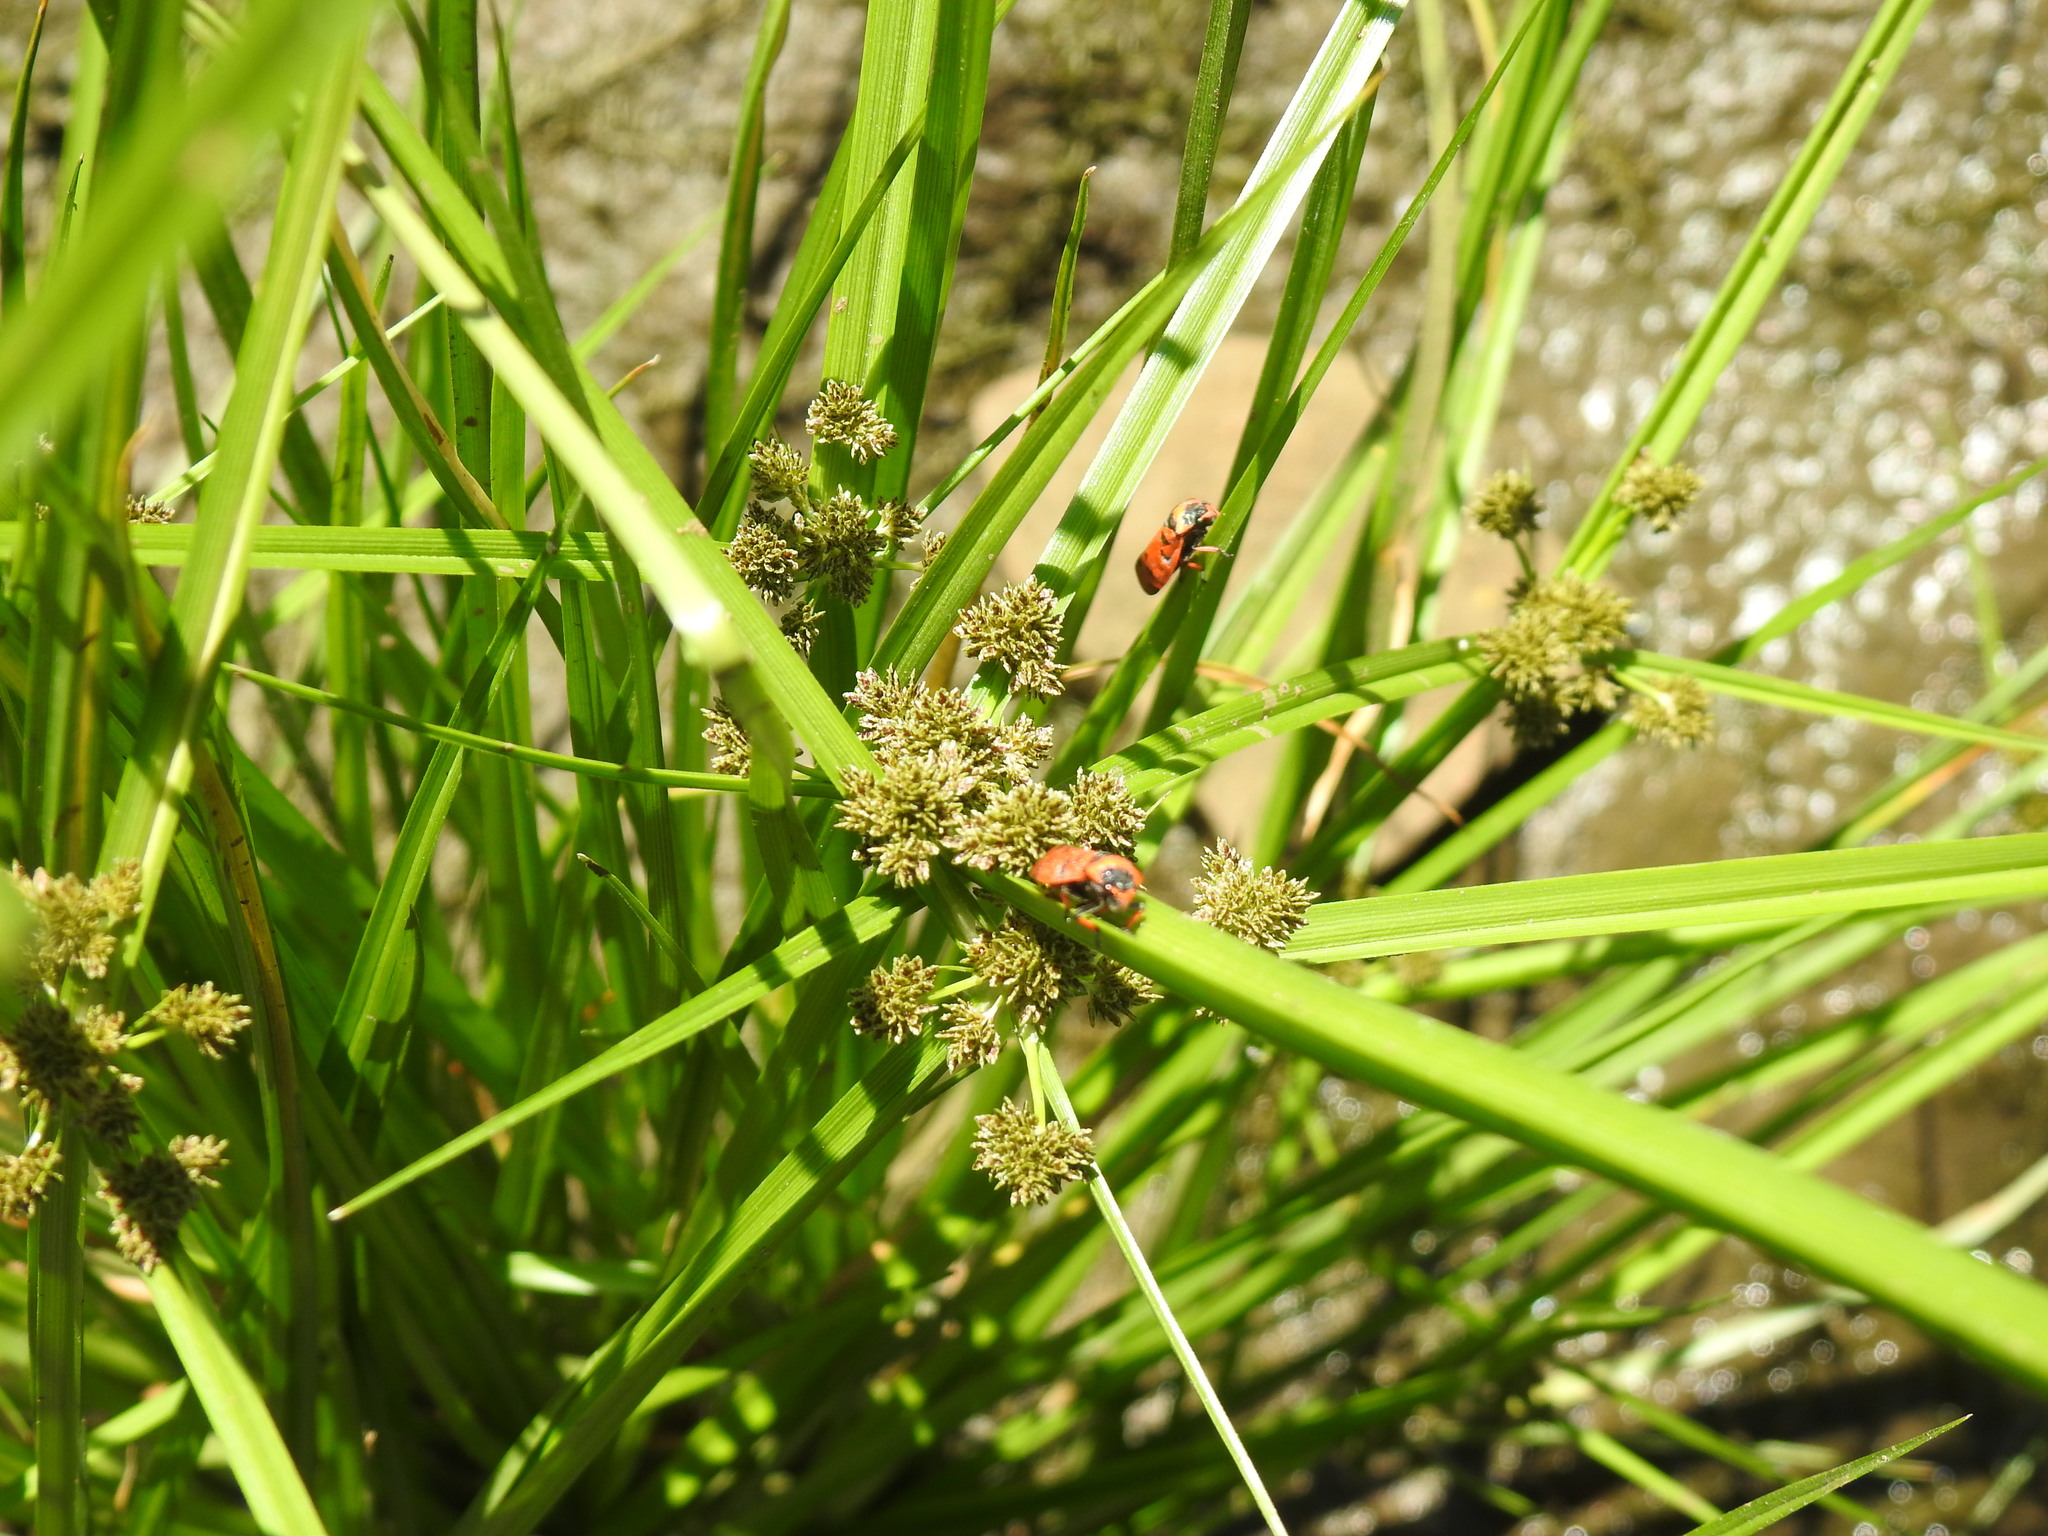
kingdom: Plantae
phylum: Tracheophyta
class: Liliopsida
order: Poales
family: Cyperaceae
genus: Cyperus
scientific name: Cyperus difformis
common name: Variable flatsedge
